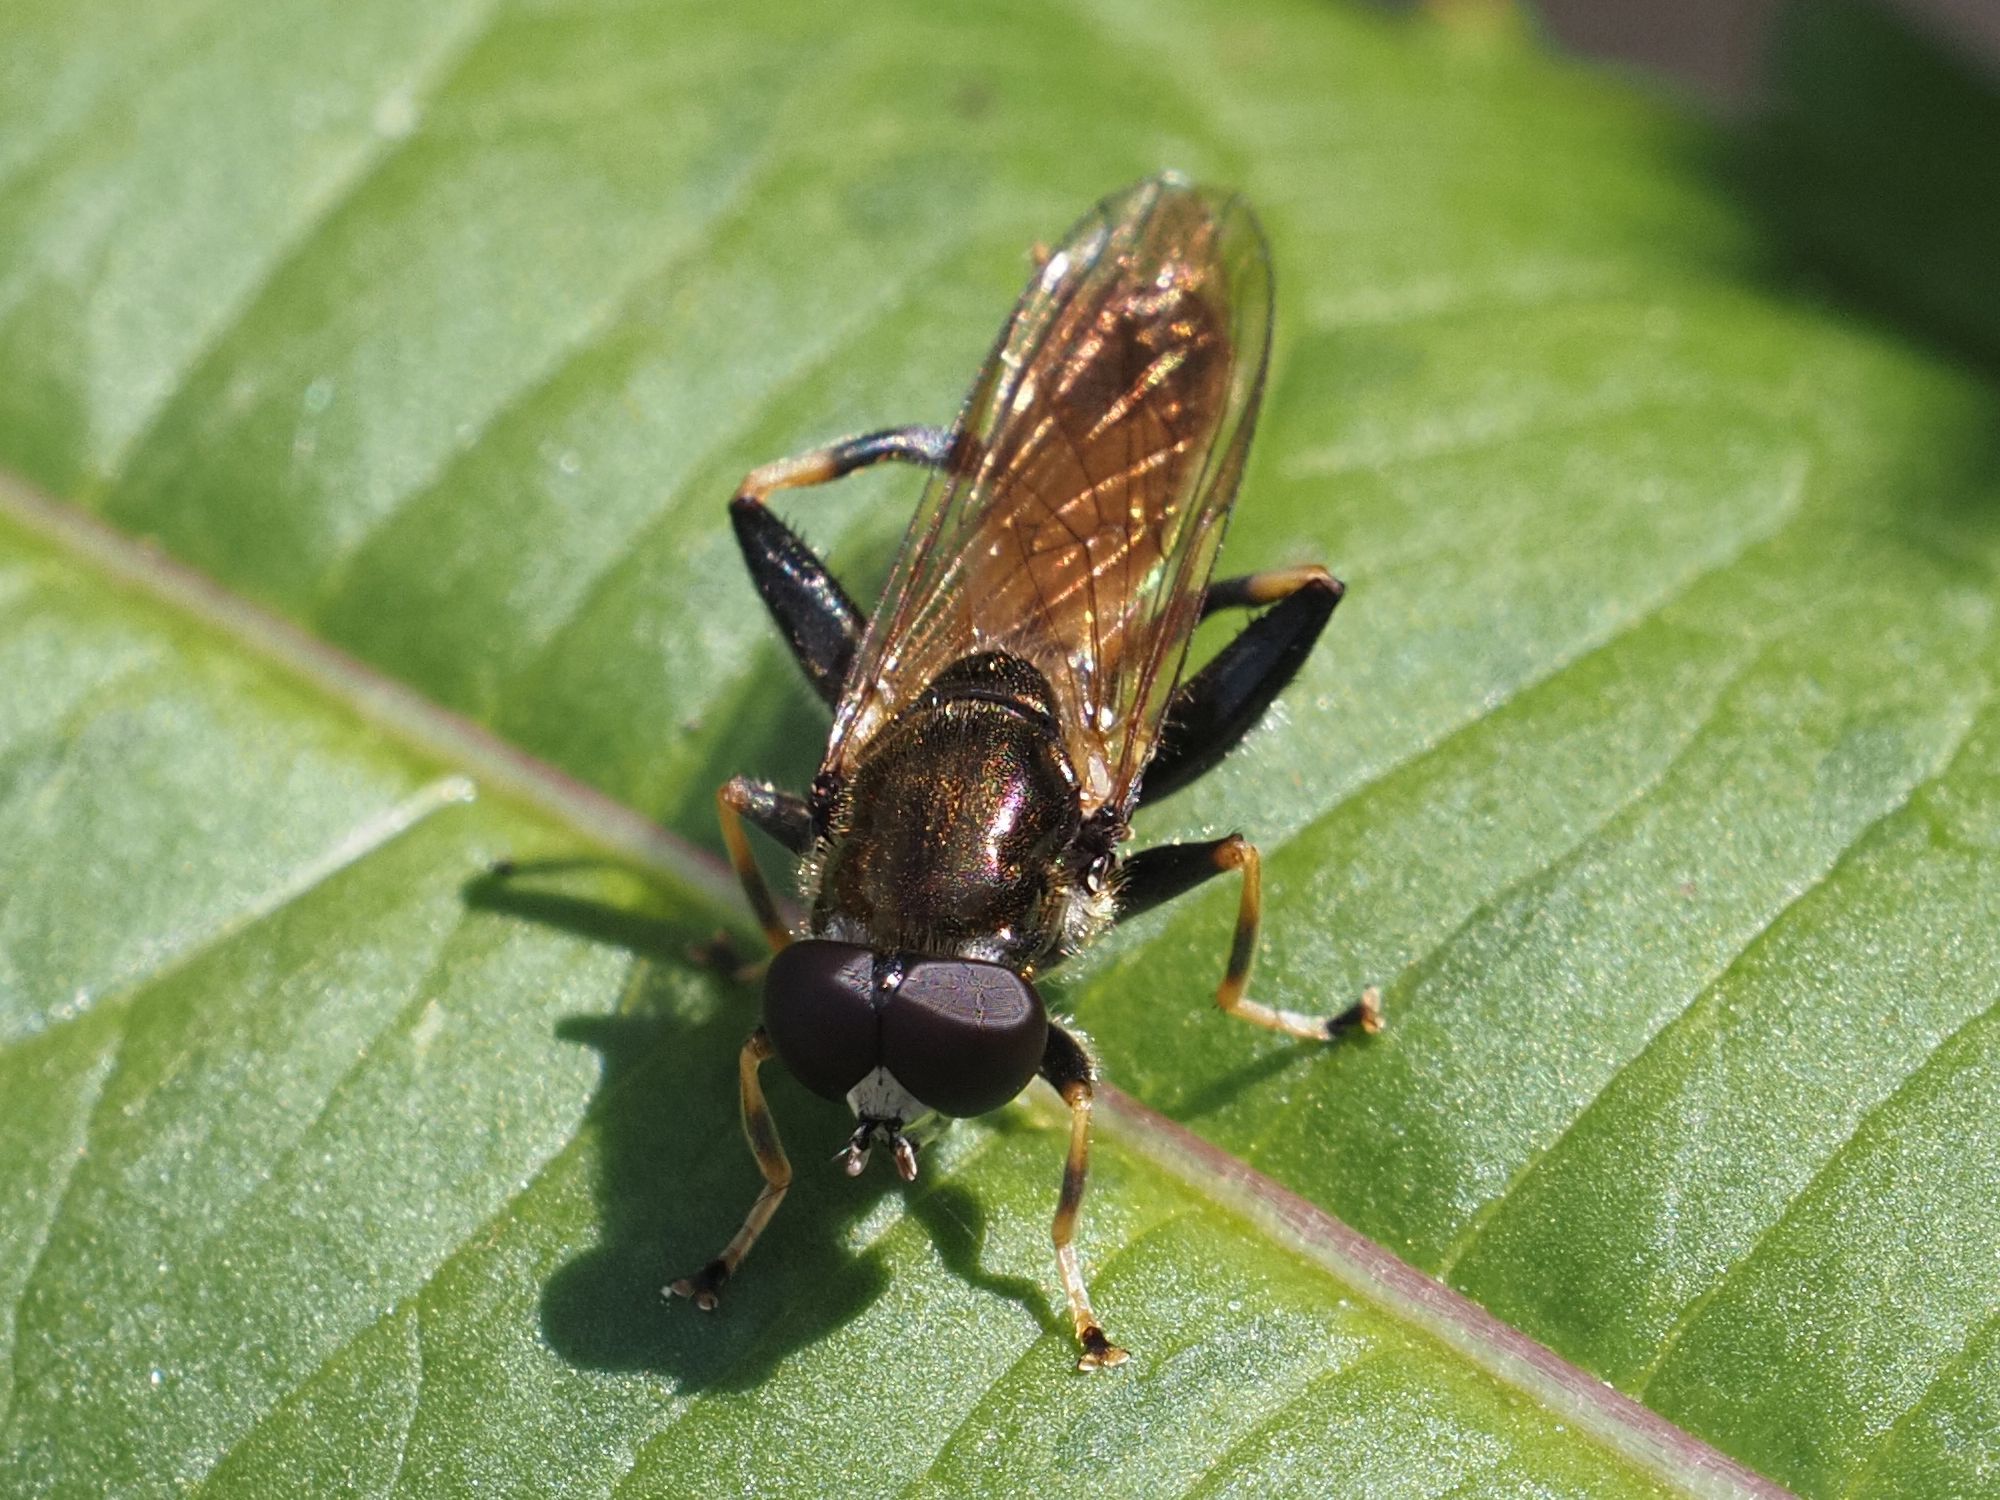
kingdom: Animalia
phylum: Arthropoda
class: Insecta
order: Diptera
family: Syrphidae
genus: Xylota
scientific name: Xylota segnis
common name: Brown-toed forest fly
